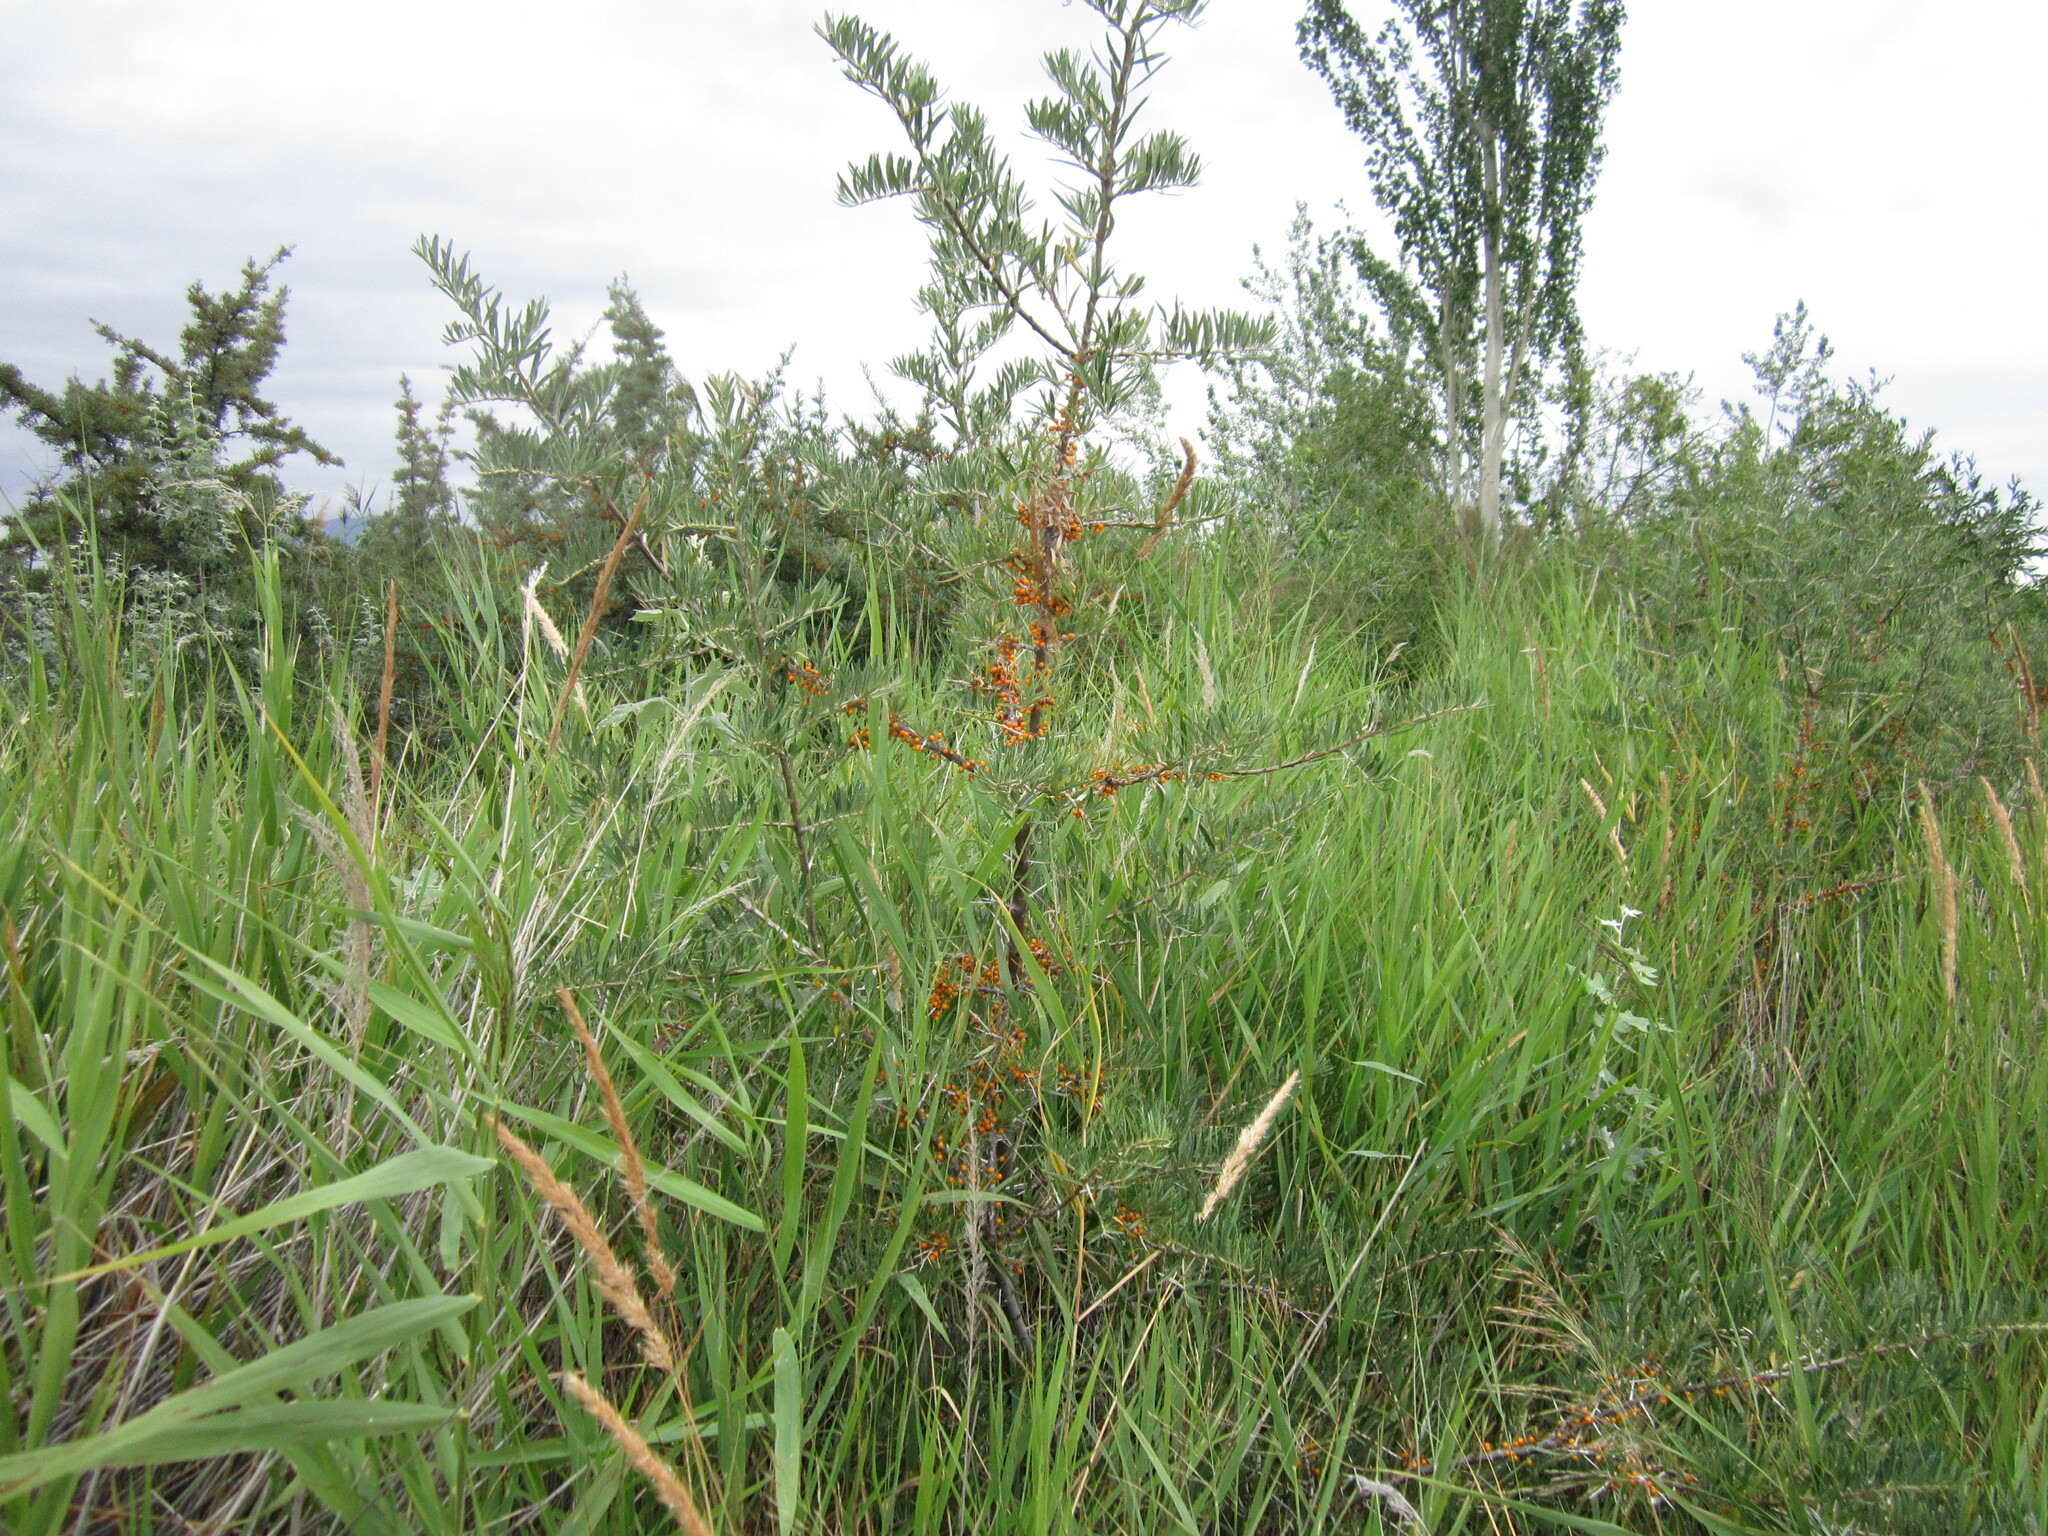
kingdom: Plantae
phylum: Tracheophyta
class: Magnoliopsida
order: Rosales
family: Elaeagnaceae
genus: Hippophae
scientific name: Hippophae rhamnoides
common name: Sea-buckthorn
